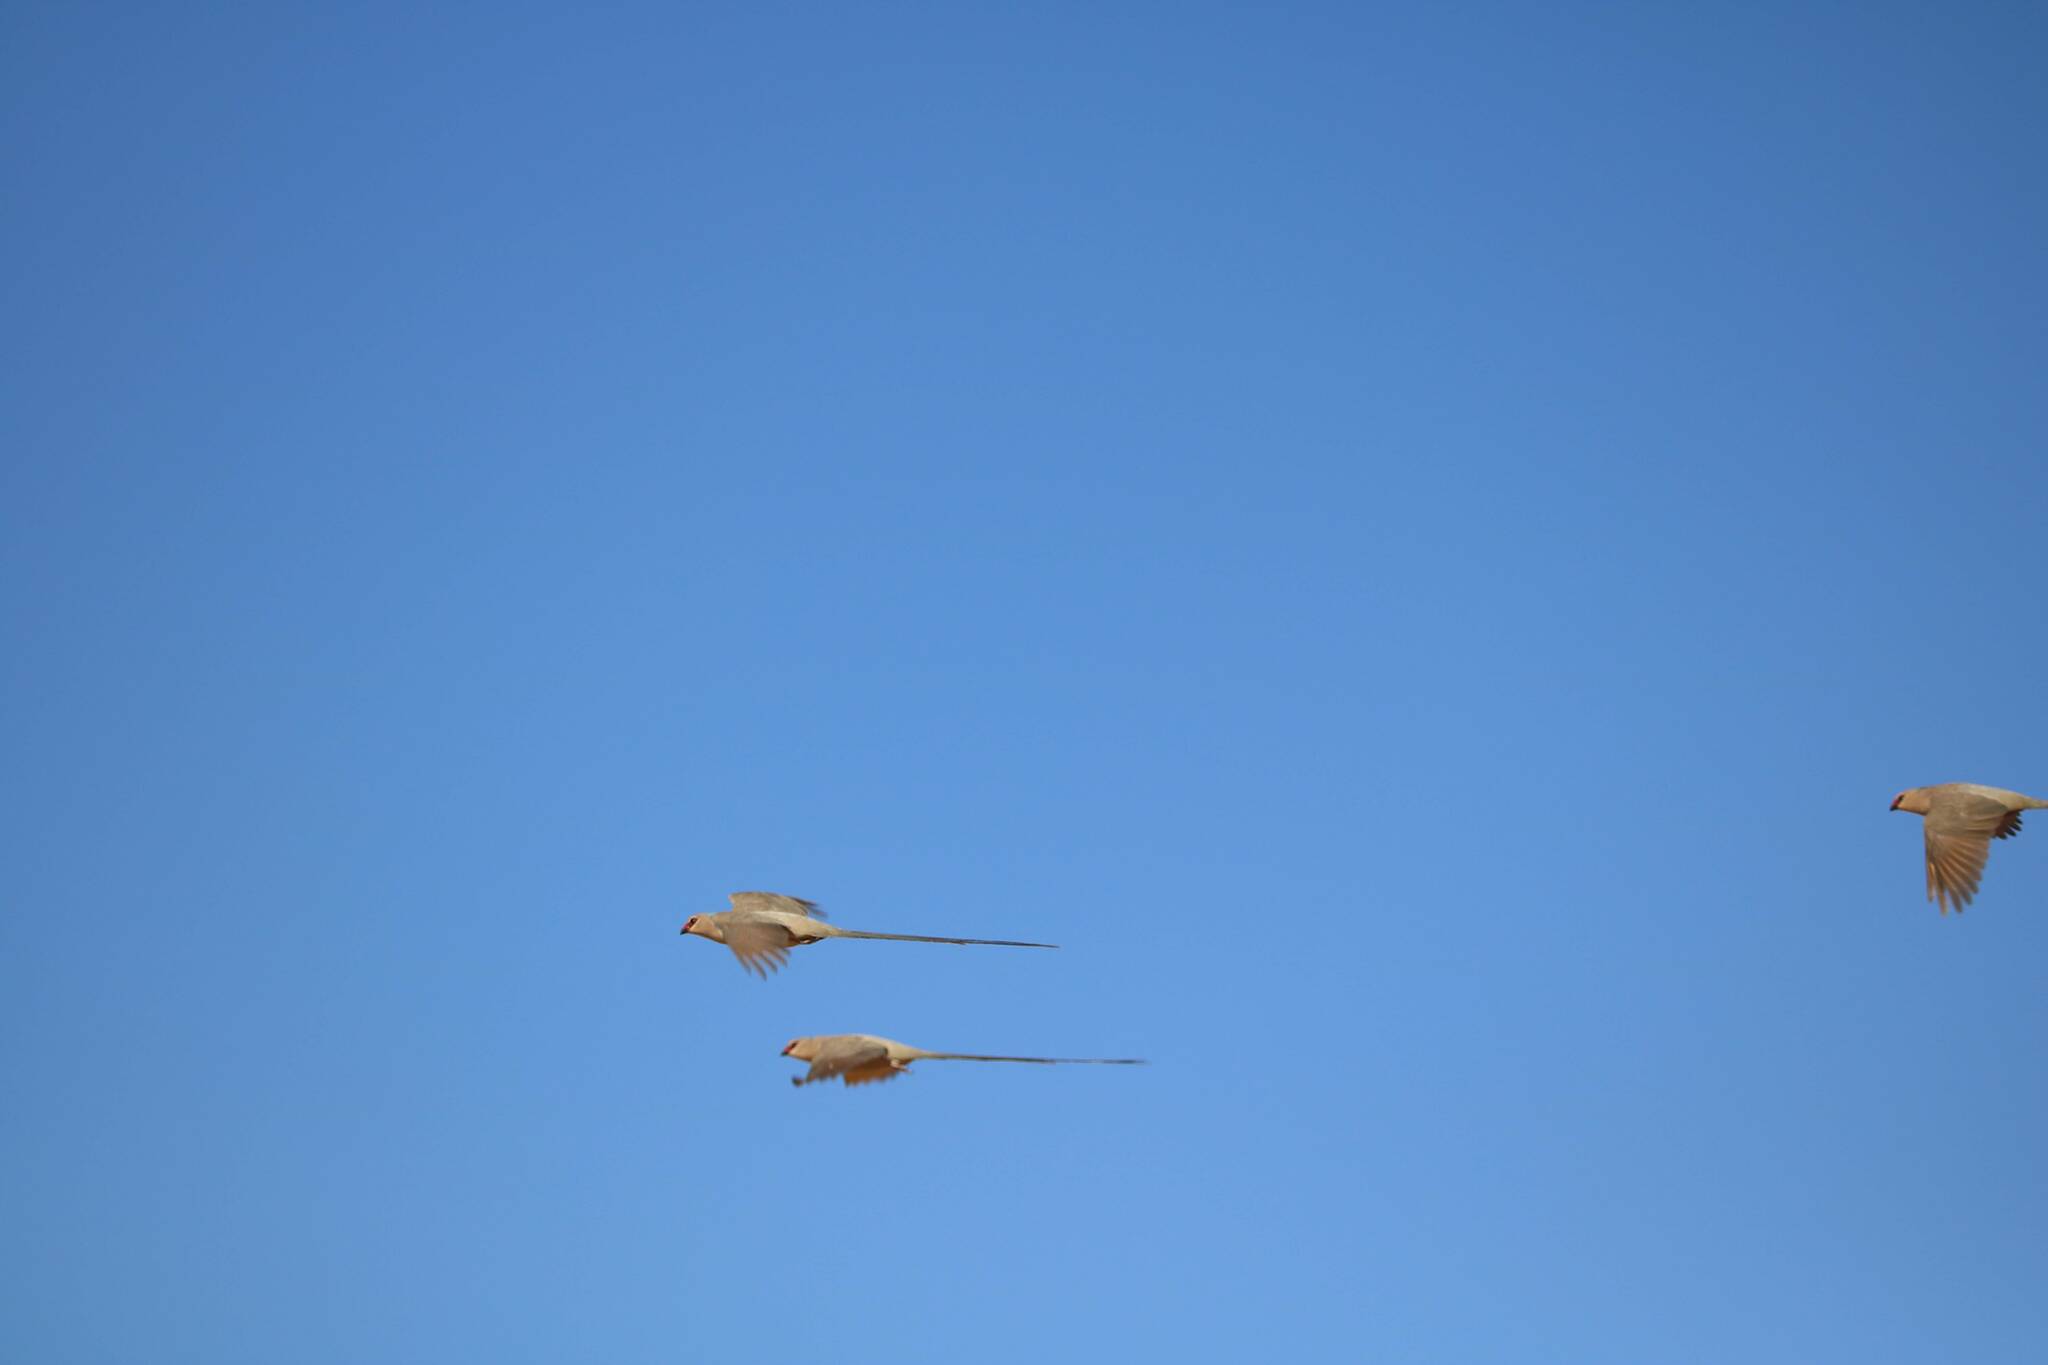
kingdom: Animalia
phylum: Chordata
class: Aves
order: Coliiformes
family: Coliidae
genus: Urocolius
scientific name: Urocolius macrourus
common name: Blue-naped mousebird
